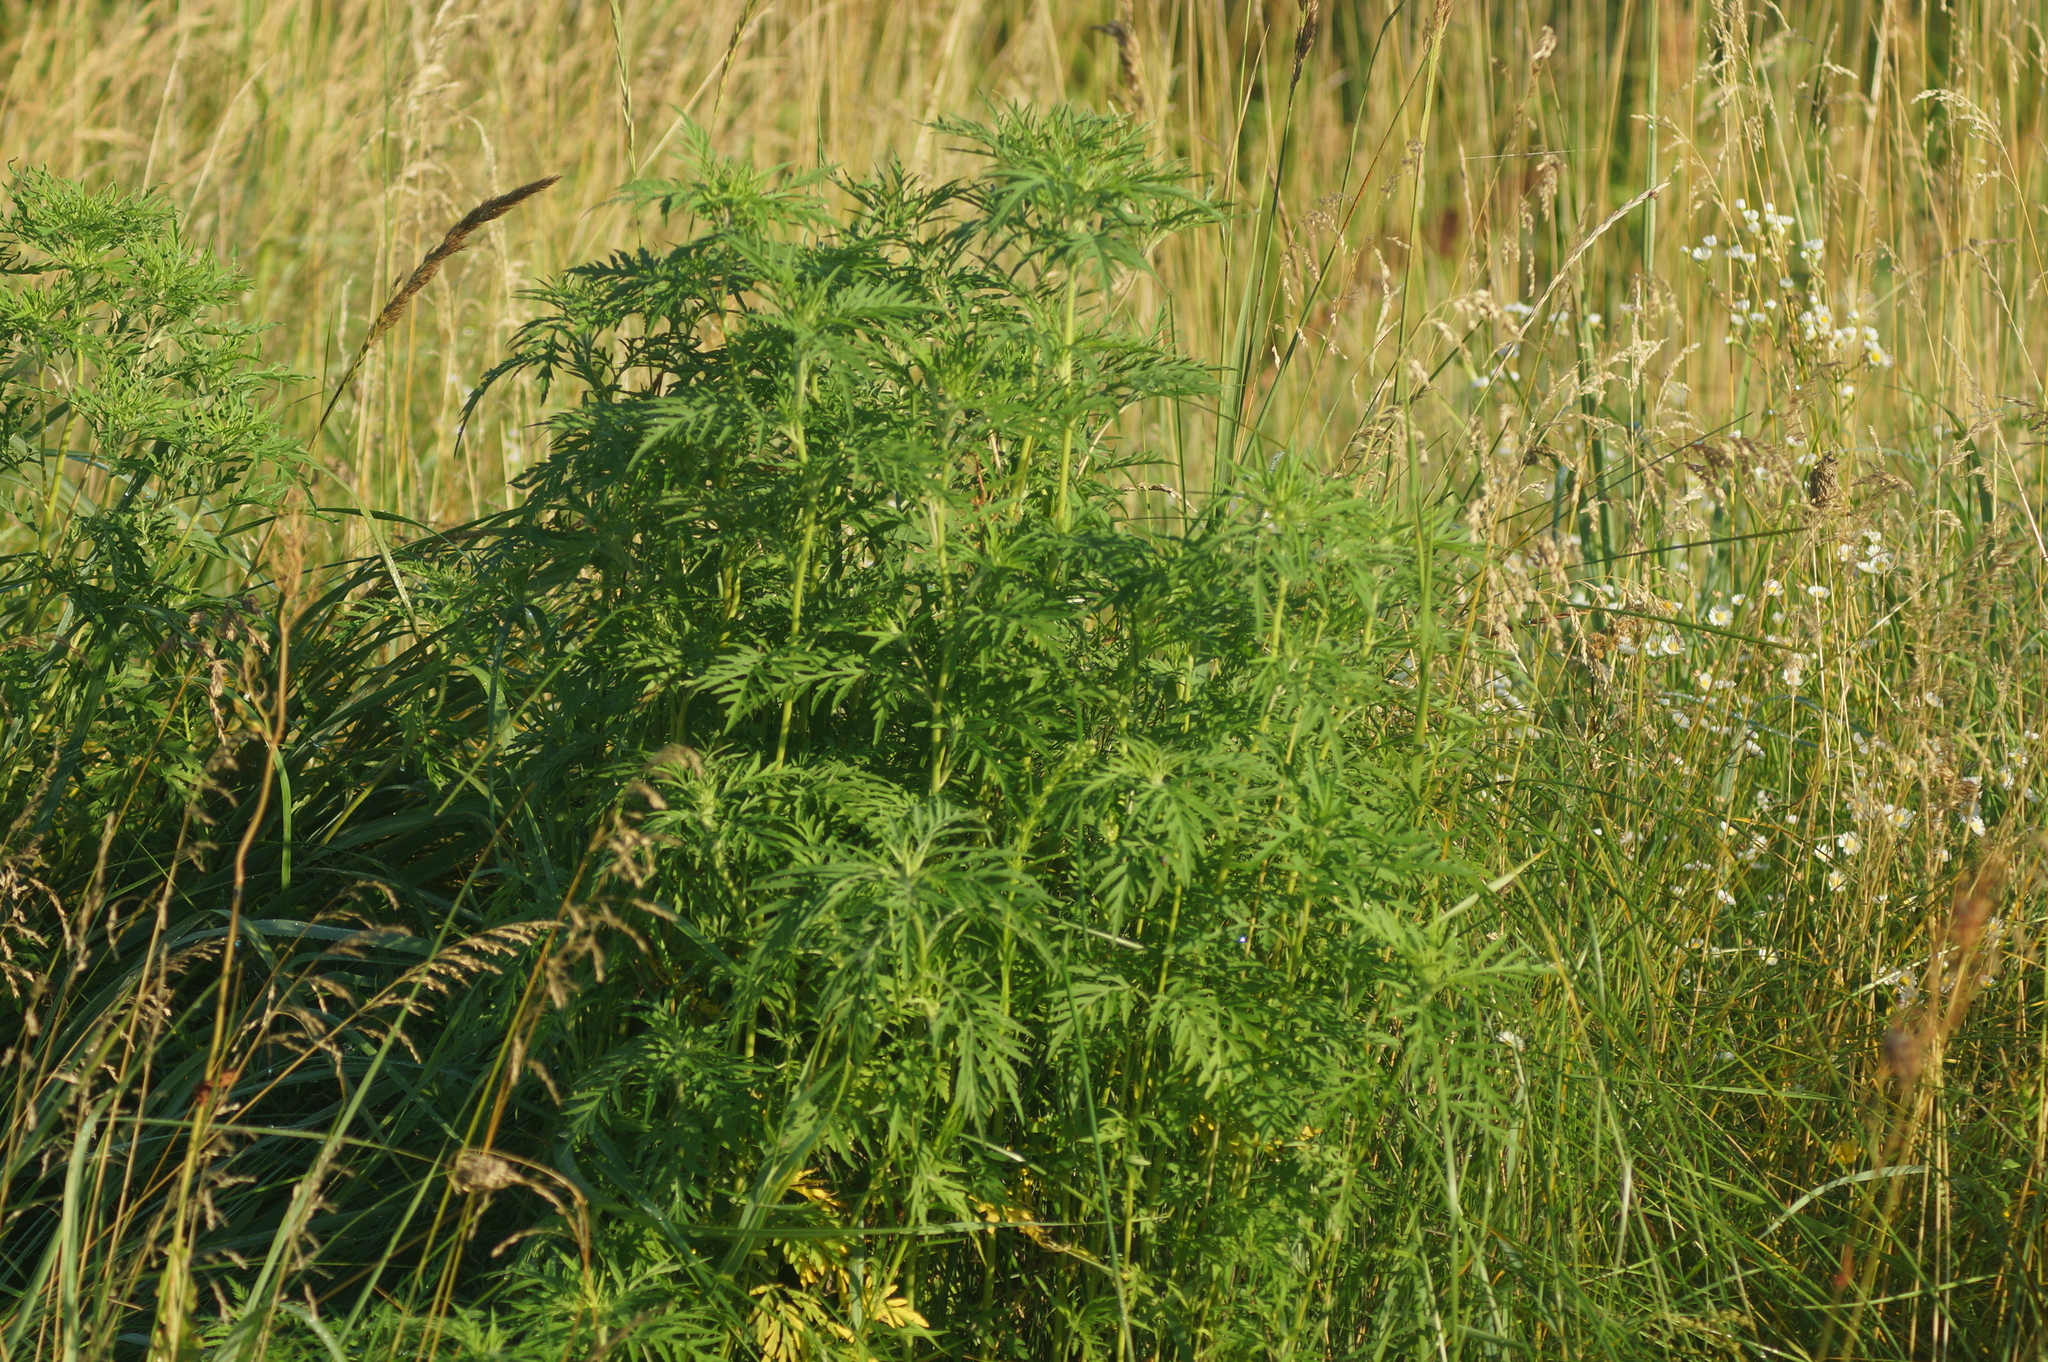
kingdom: Plantae
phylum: Tracheophyta
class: Magnoliopsida
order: Asterales
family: Asteraceae
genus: Ambrosia
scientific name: Ambrosia artemisiifolia
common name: Annual ragweed
